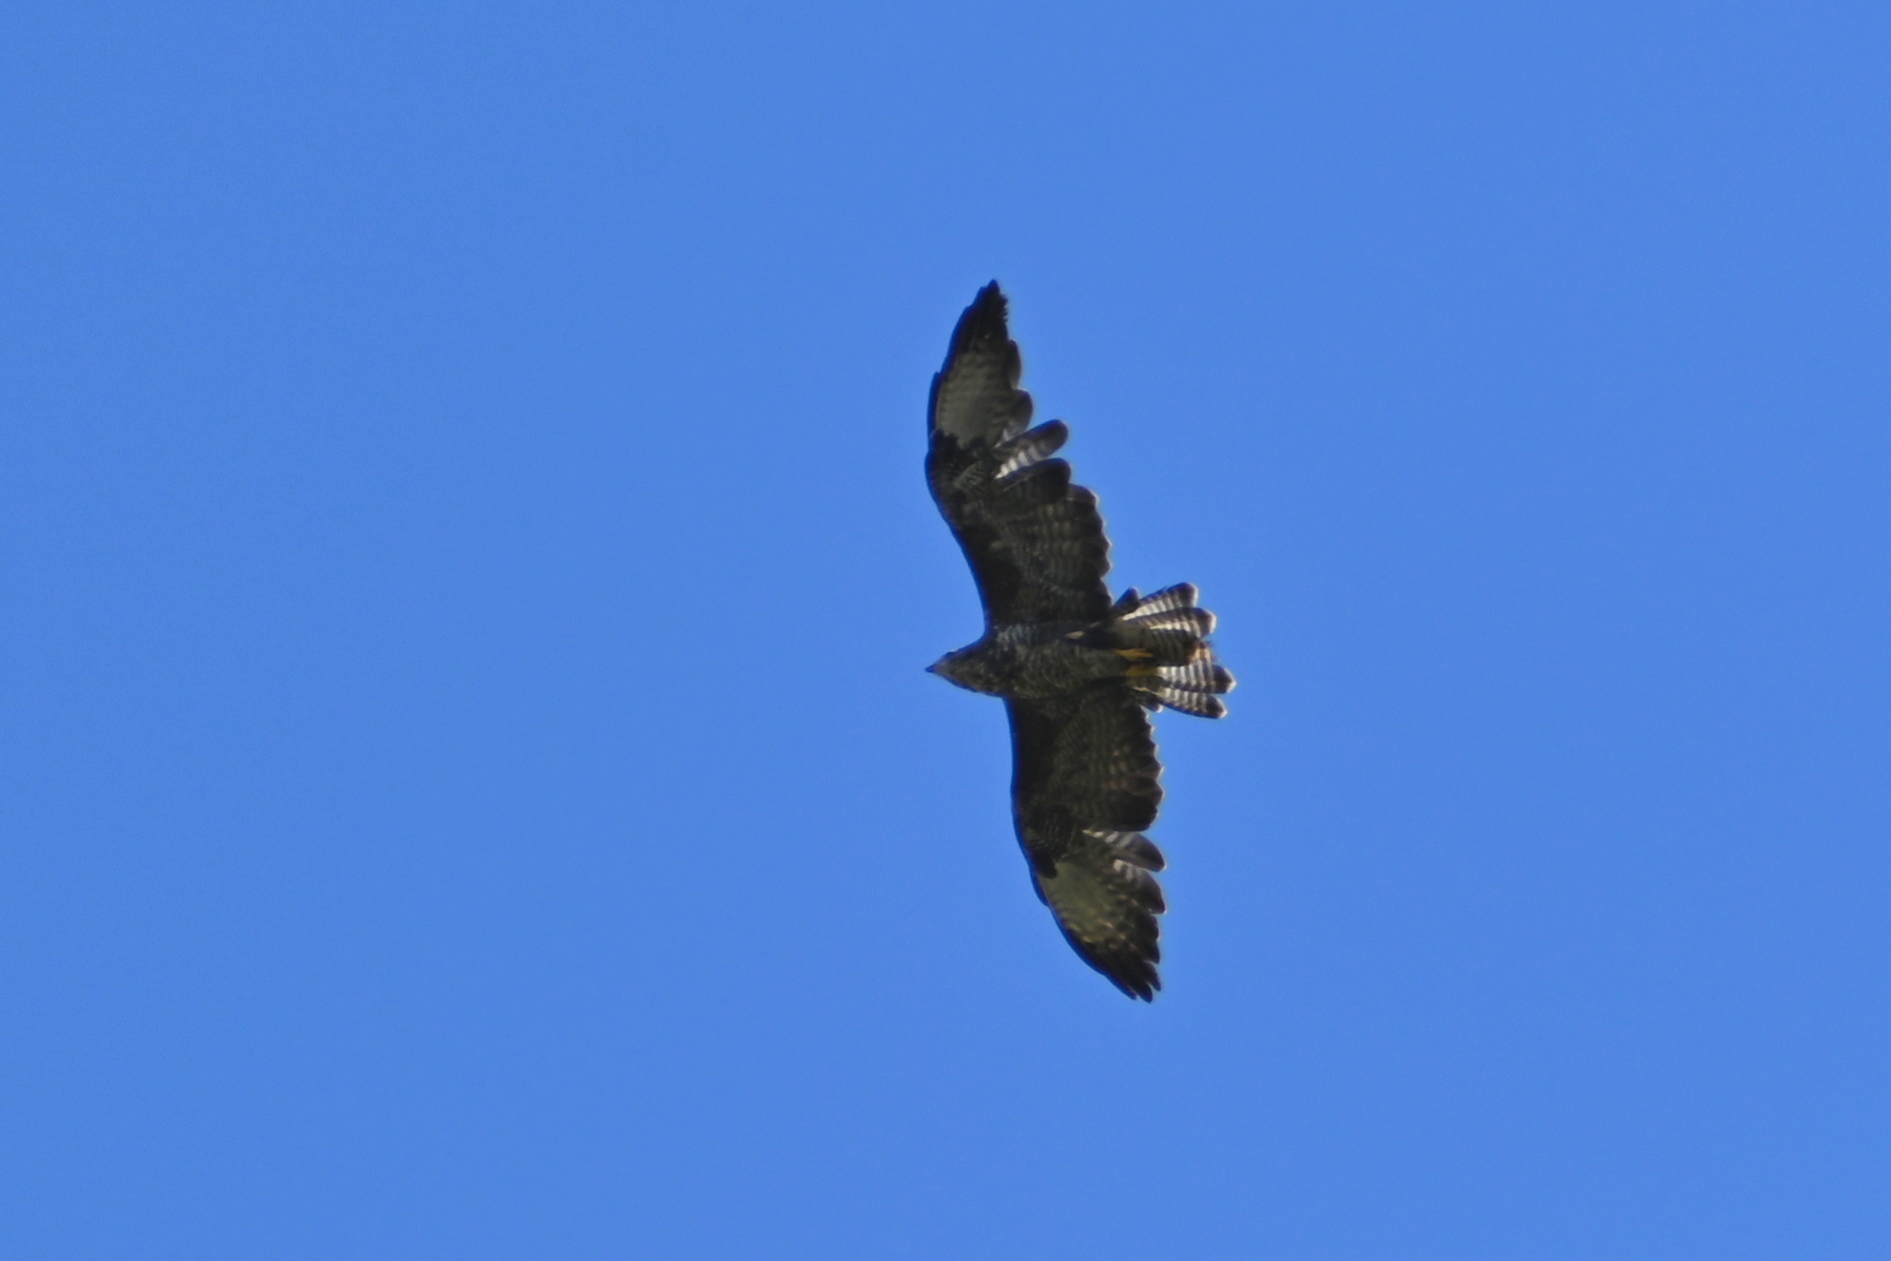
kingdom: Animalia
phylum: Chordata
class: Aves
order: Accipitriformes
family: Accipitridae
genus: Buteo
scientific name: Buteo buteo
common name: Common buzzard
